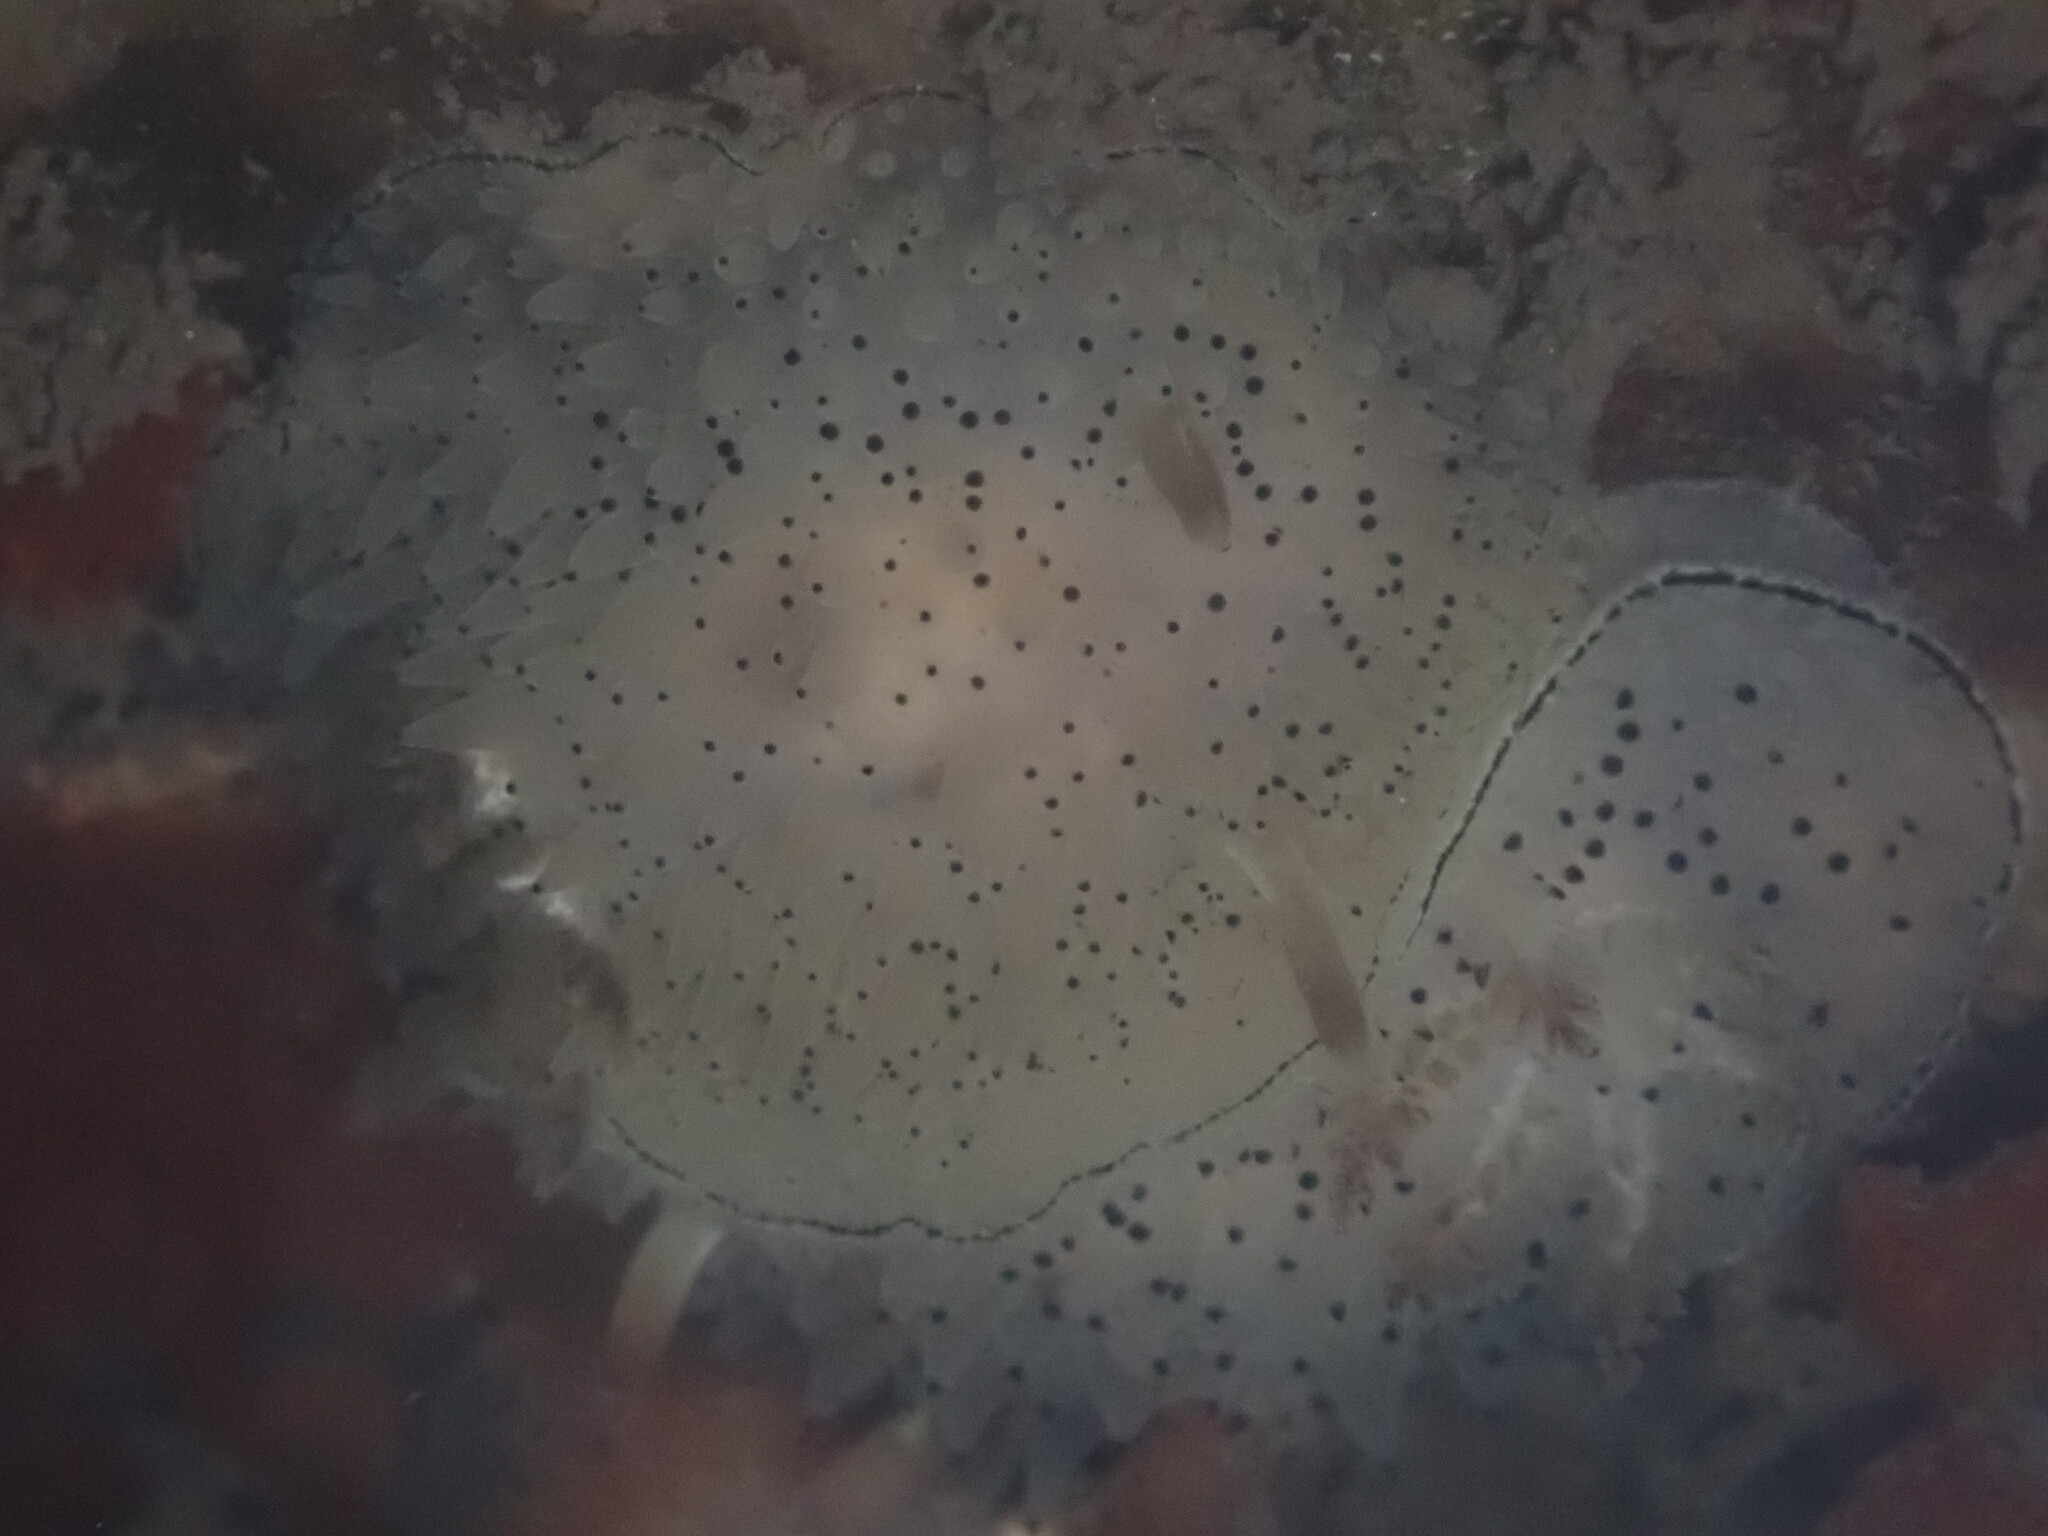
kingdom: Animalia
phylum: Mollusca
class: Gastropoda
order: Nudibranchia
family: Onchidorididae
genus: Acanthodoris
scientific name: Acanthodoris rhodoceras
